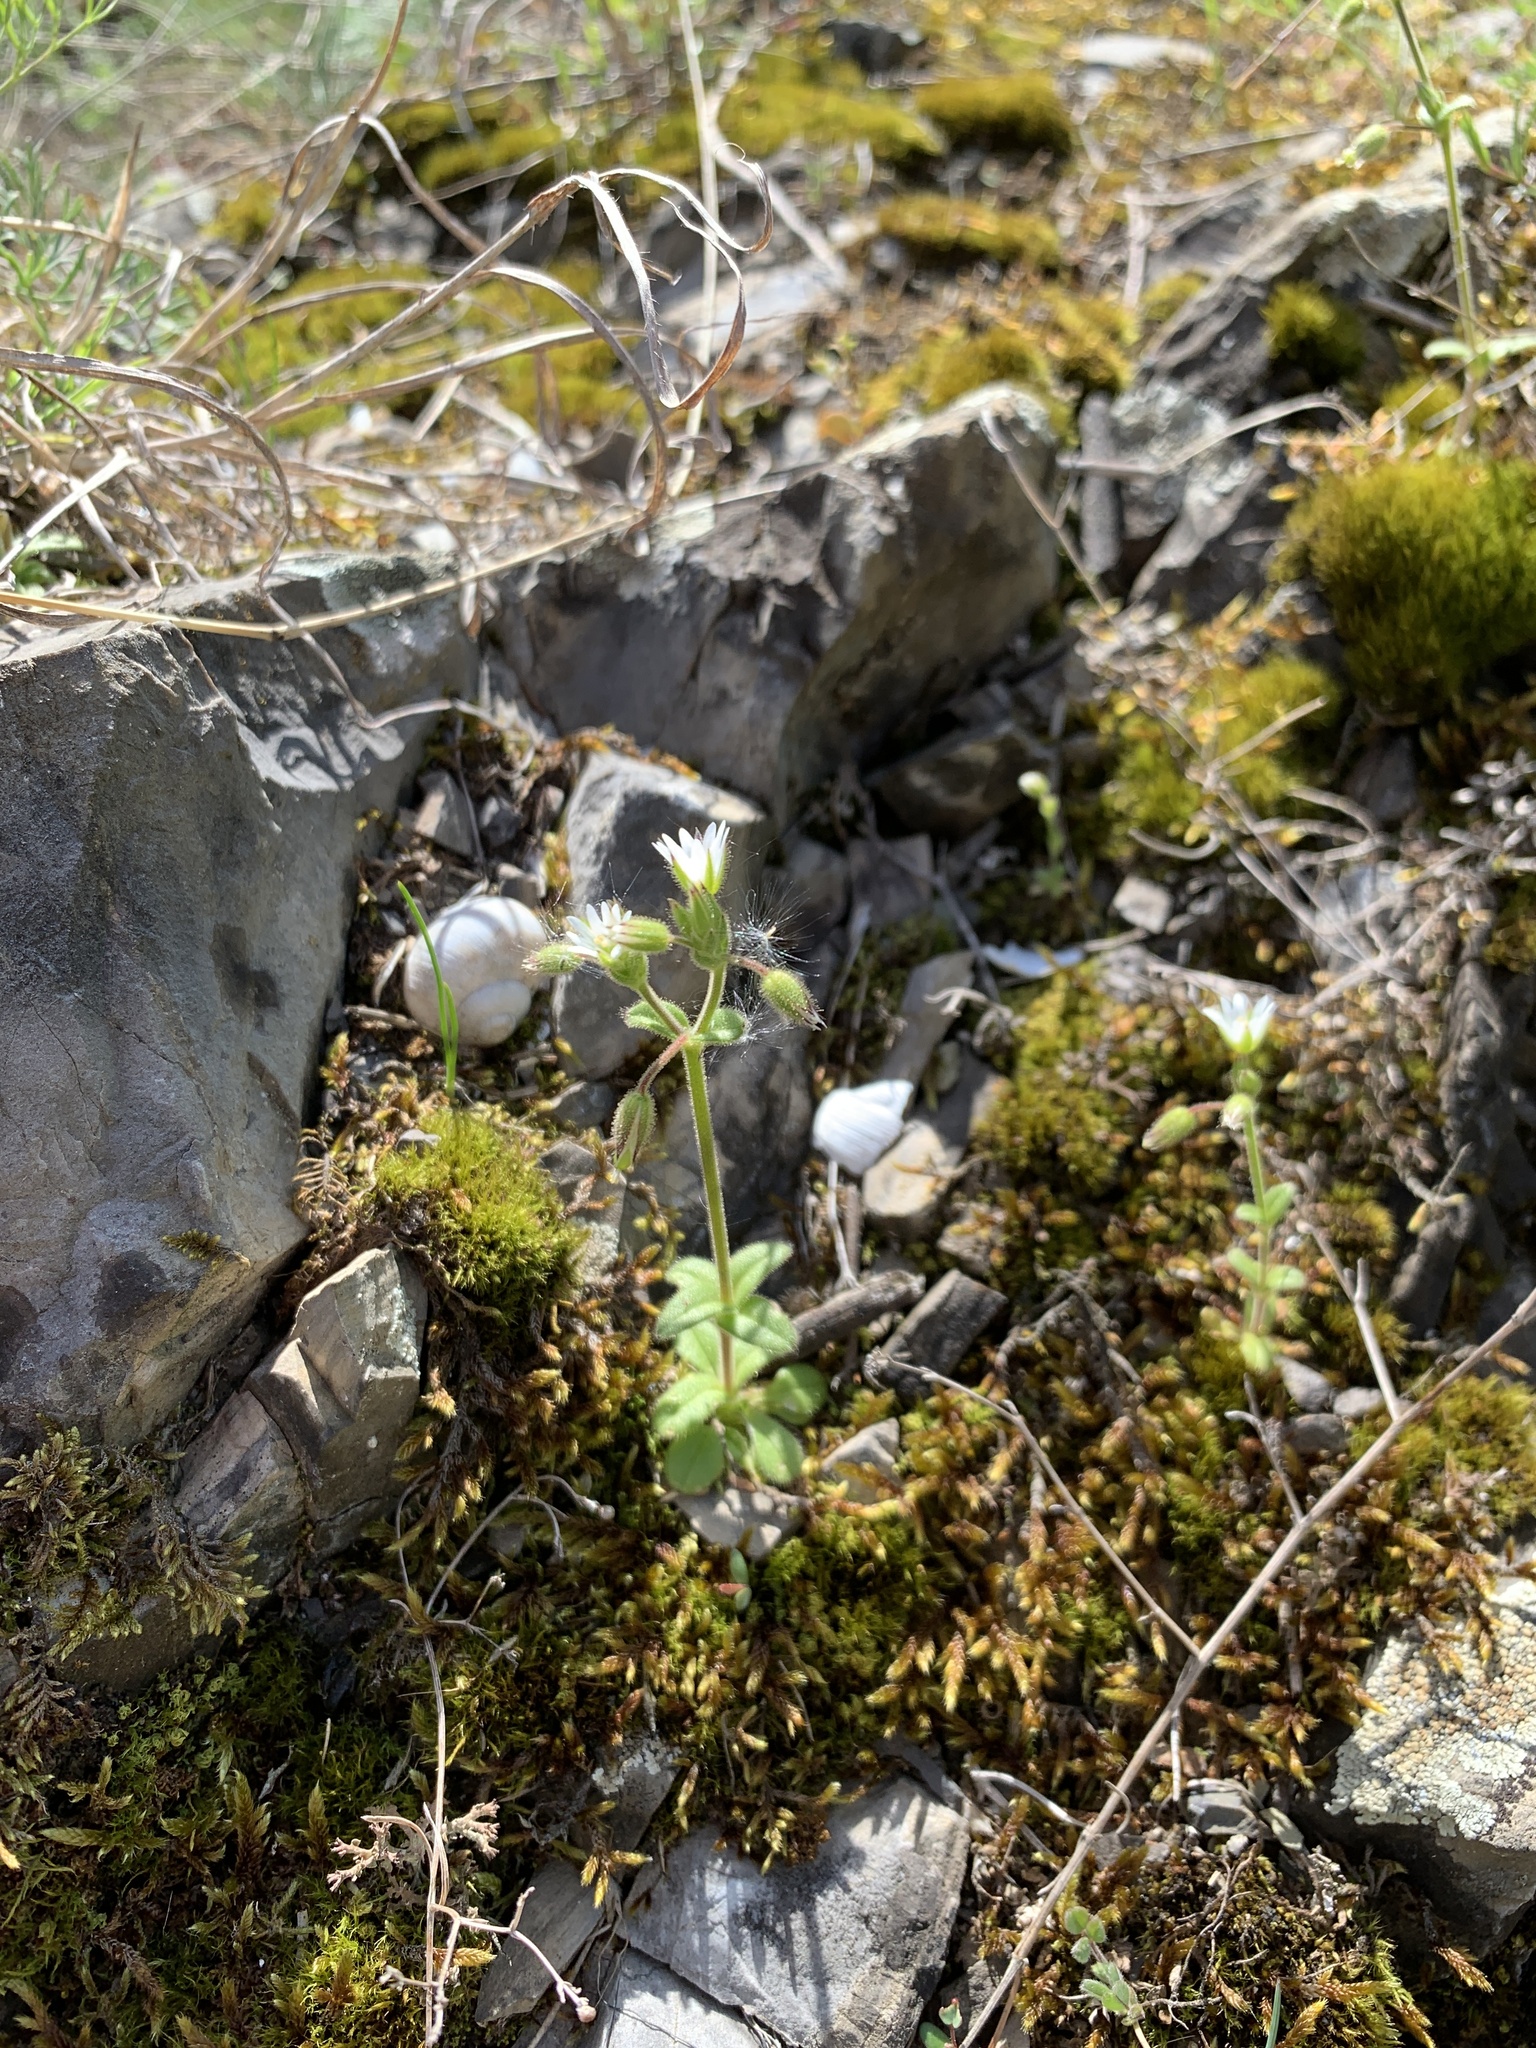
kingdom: Plantae
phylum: Tracheophyta
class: Magnoliopsida
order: Caryophyllales
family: Caryophyllaceae
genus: Cerastium
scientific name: Cerastium pumilum
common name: Dwarf mouse-ear
